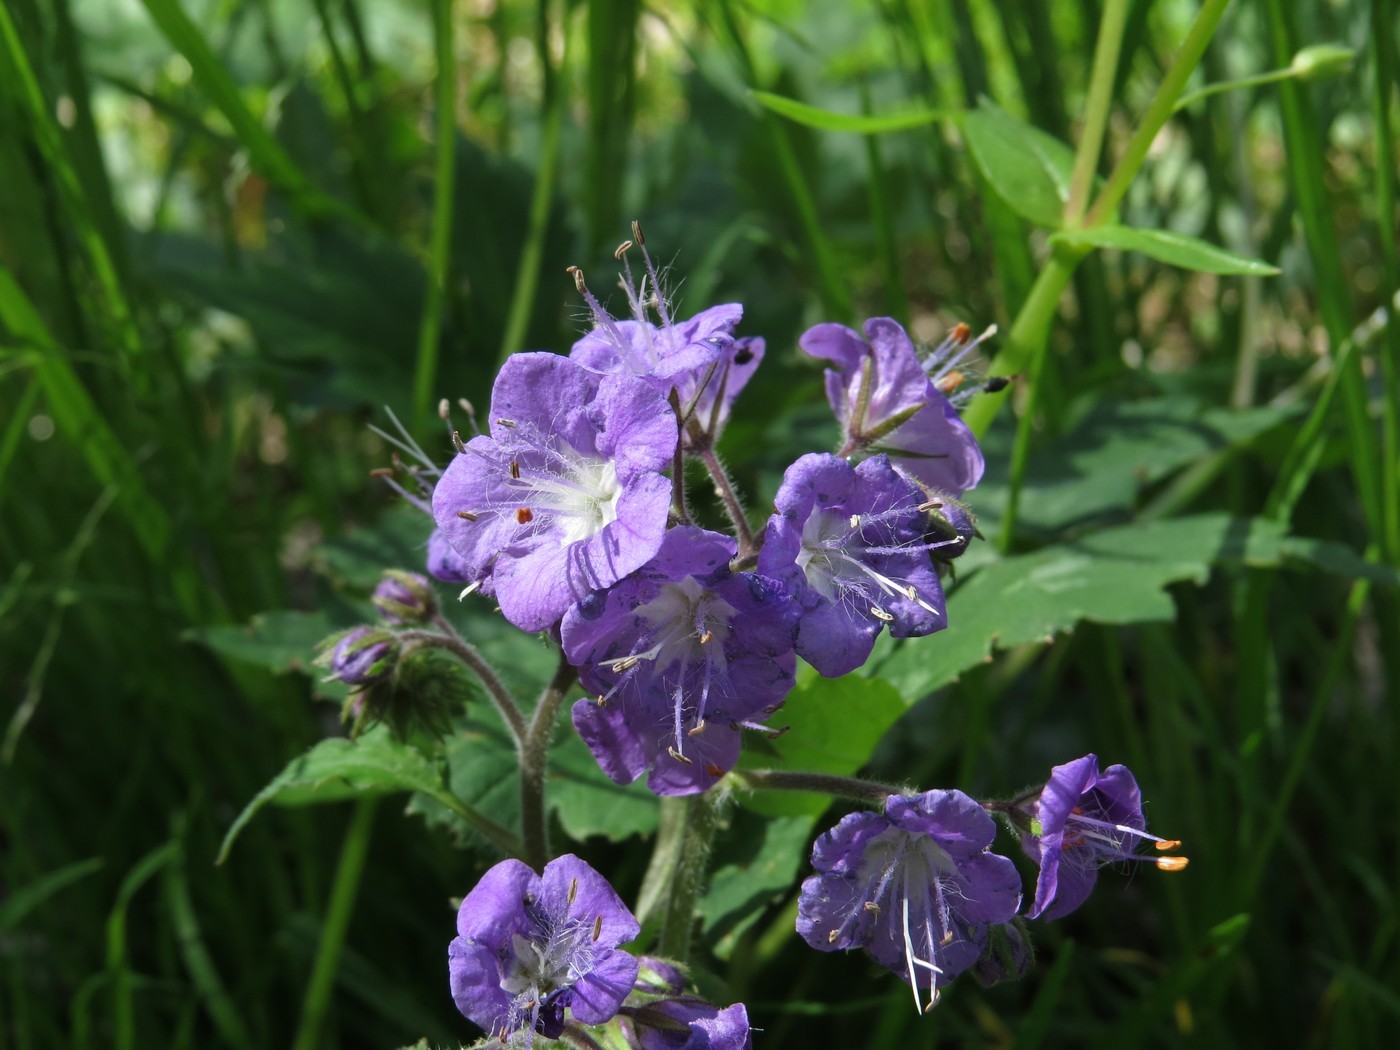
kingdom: Plantae
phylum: Tracheophyta
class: Magnoliopsida
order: Boraginales
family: Hydrophyllaceae
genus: Phacelia
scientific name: Phacelia bipinnatifida
